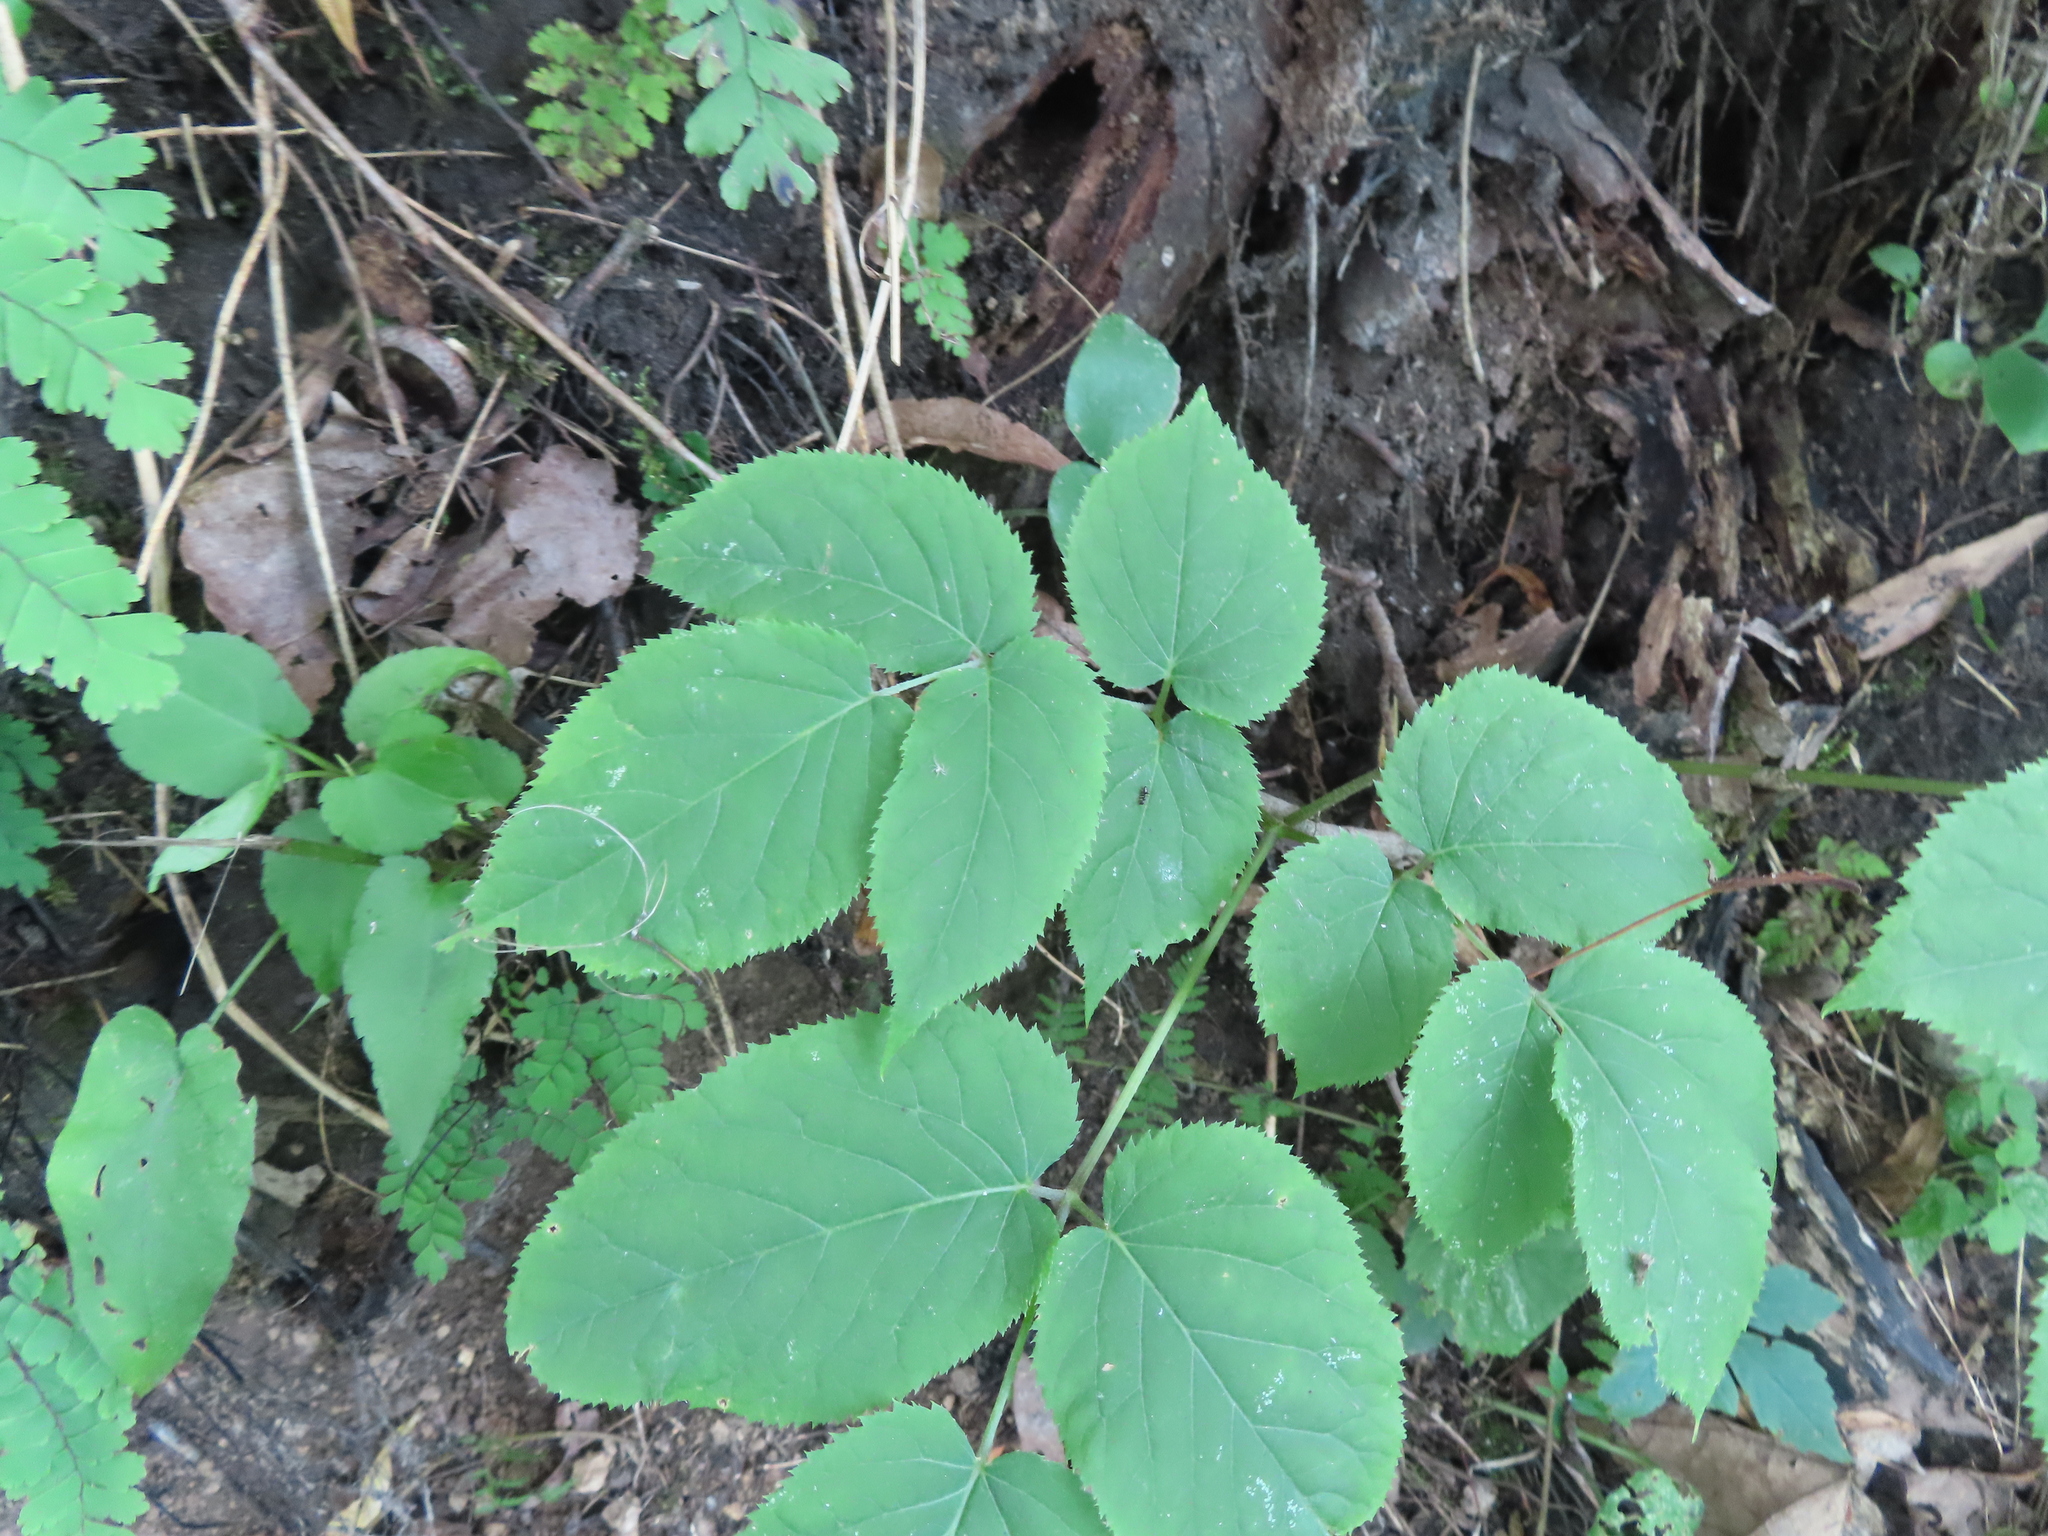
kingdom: Plantae
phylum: Tracheophyta
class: Magnoliopsida
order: Apiales
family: Araliaceae
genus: Aralia
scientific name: Aralia racemosa
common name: American-spikenard
